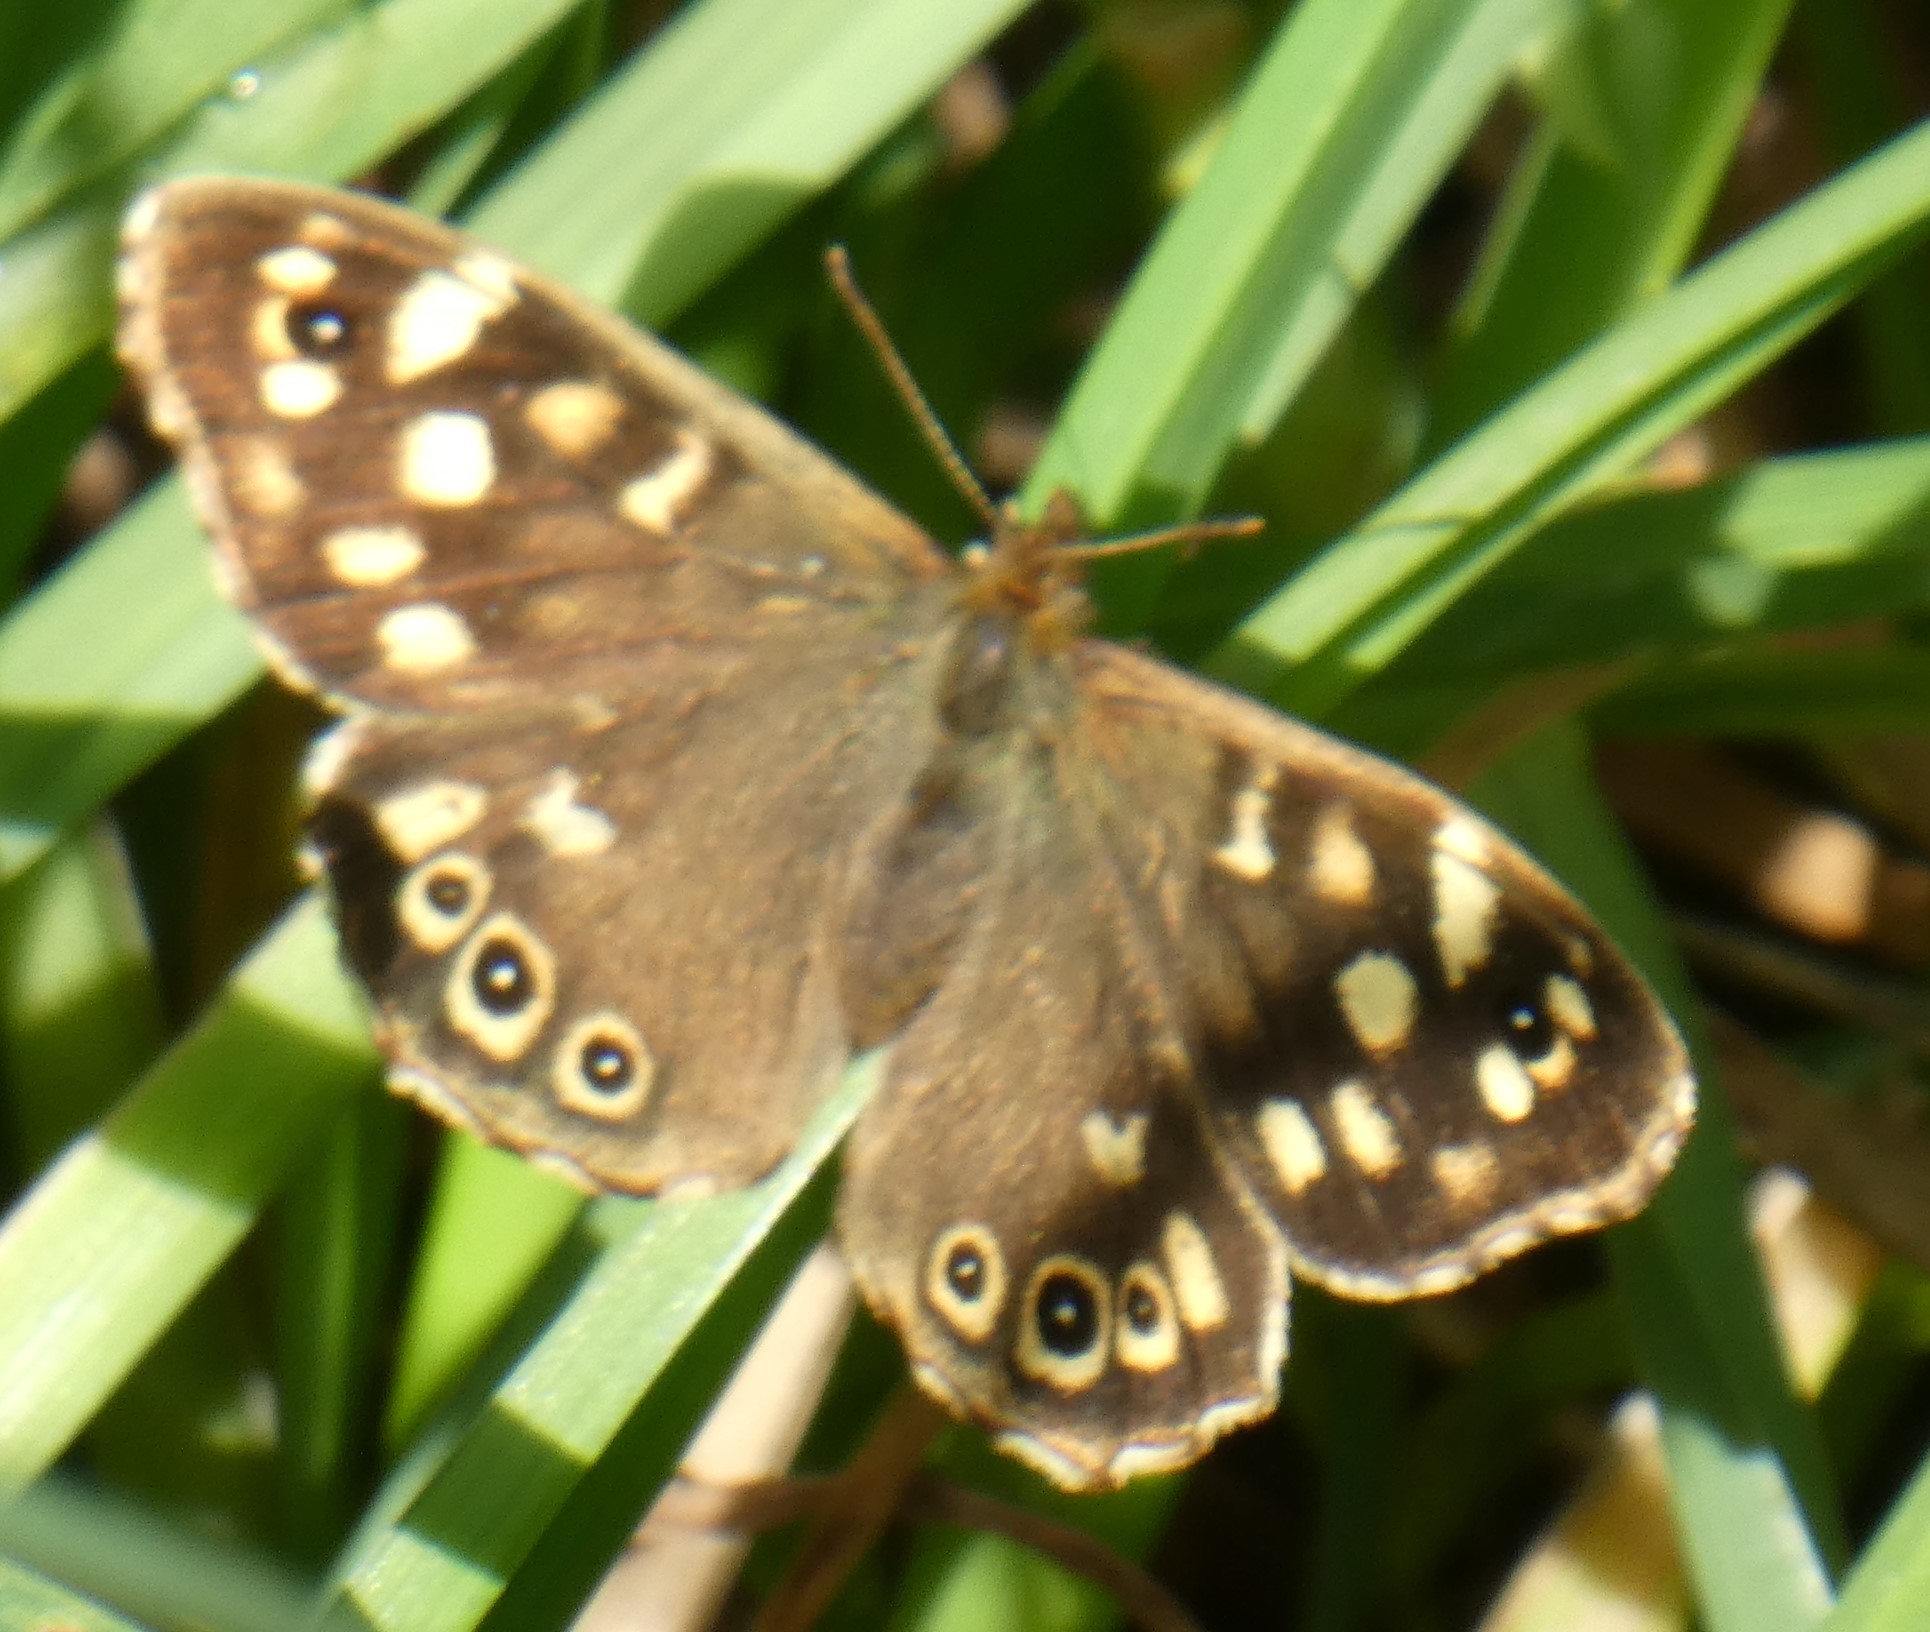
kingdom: Animalia
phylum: Arthropoda
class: Insecta
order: Lepidoptera
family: Nymphalidae
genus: Pararge
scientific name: Pararge aegeria
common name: Speckled wood
